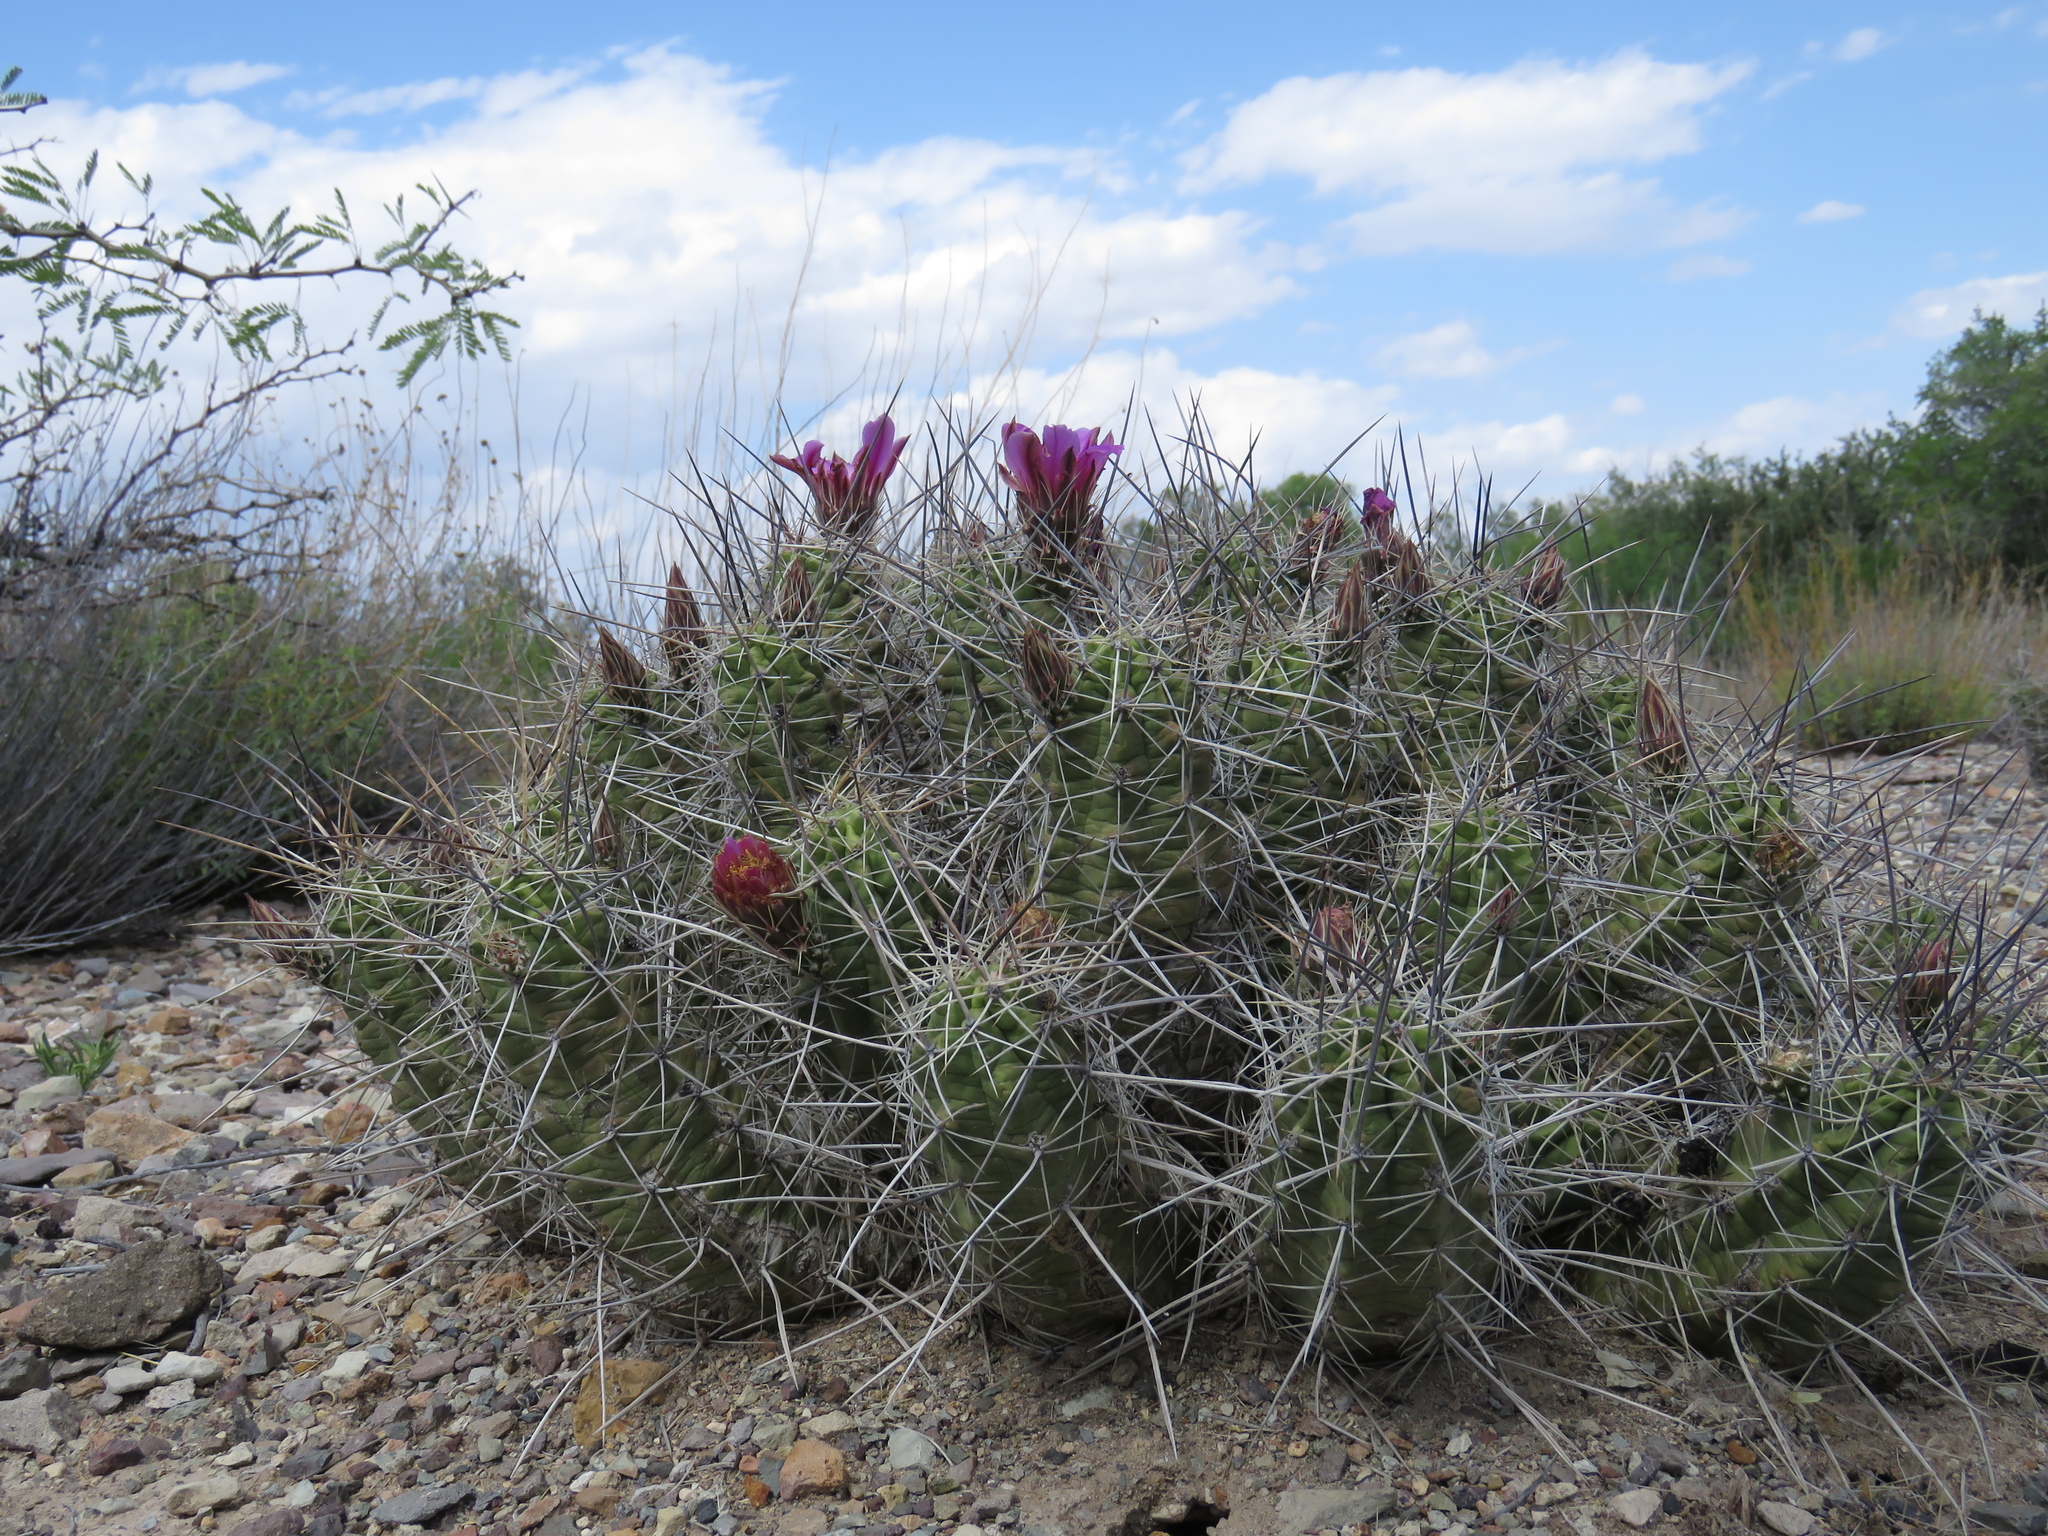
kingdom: Plantae
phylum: Tracheophyta
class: Magnoliopsida
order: Caryophyllales
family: Cactaceae
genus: Echinocereus
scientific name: Echinocereus enneacanthus
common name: Pitaya
